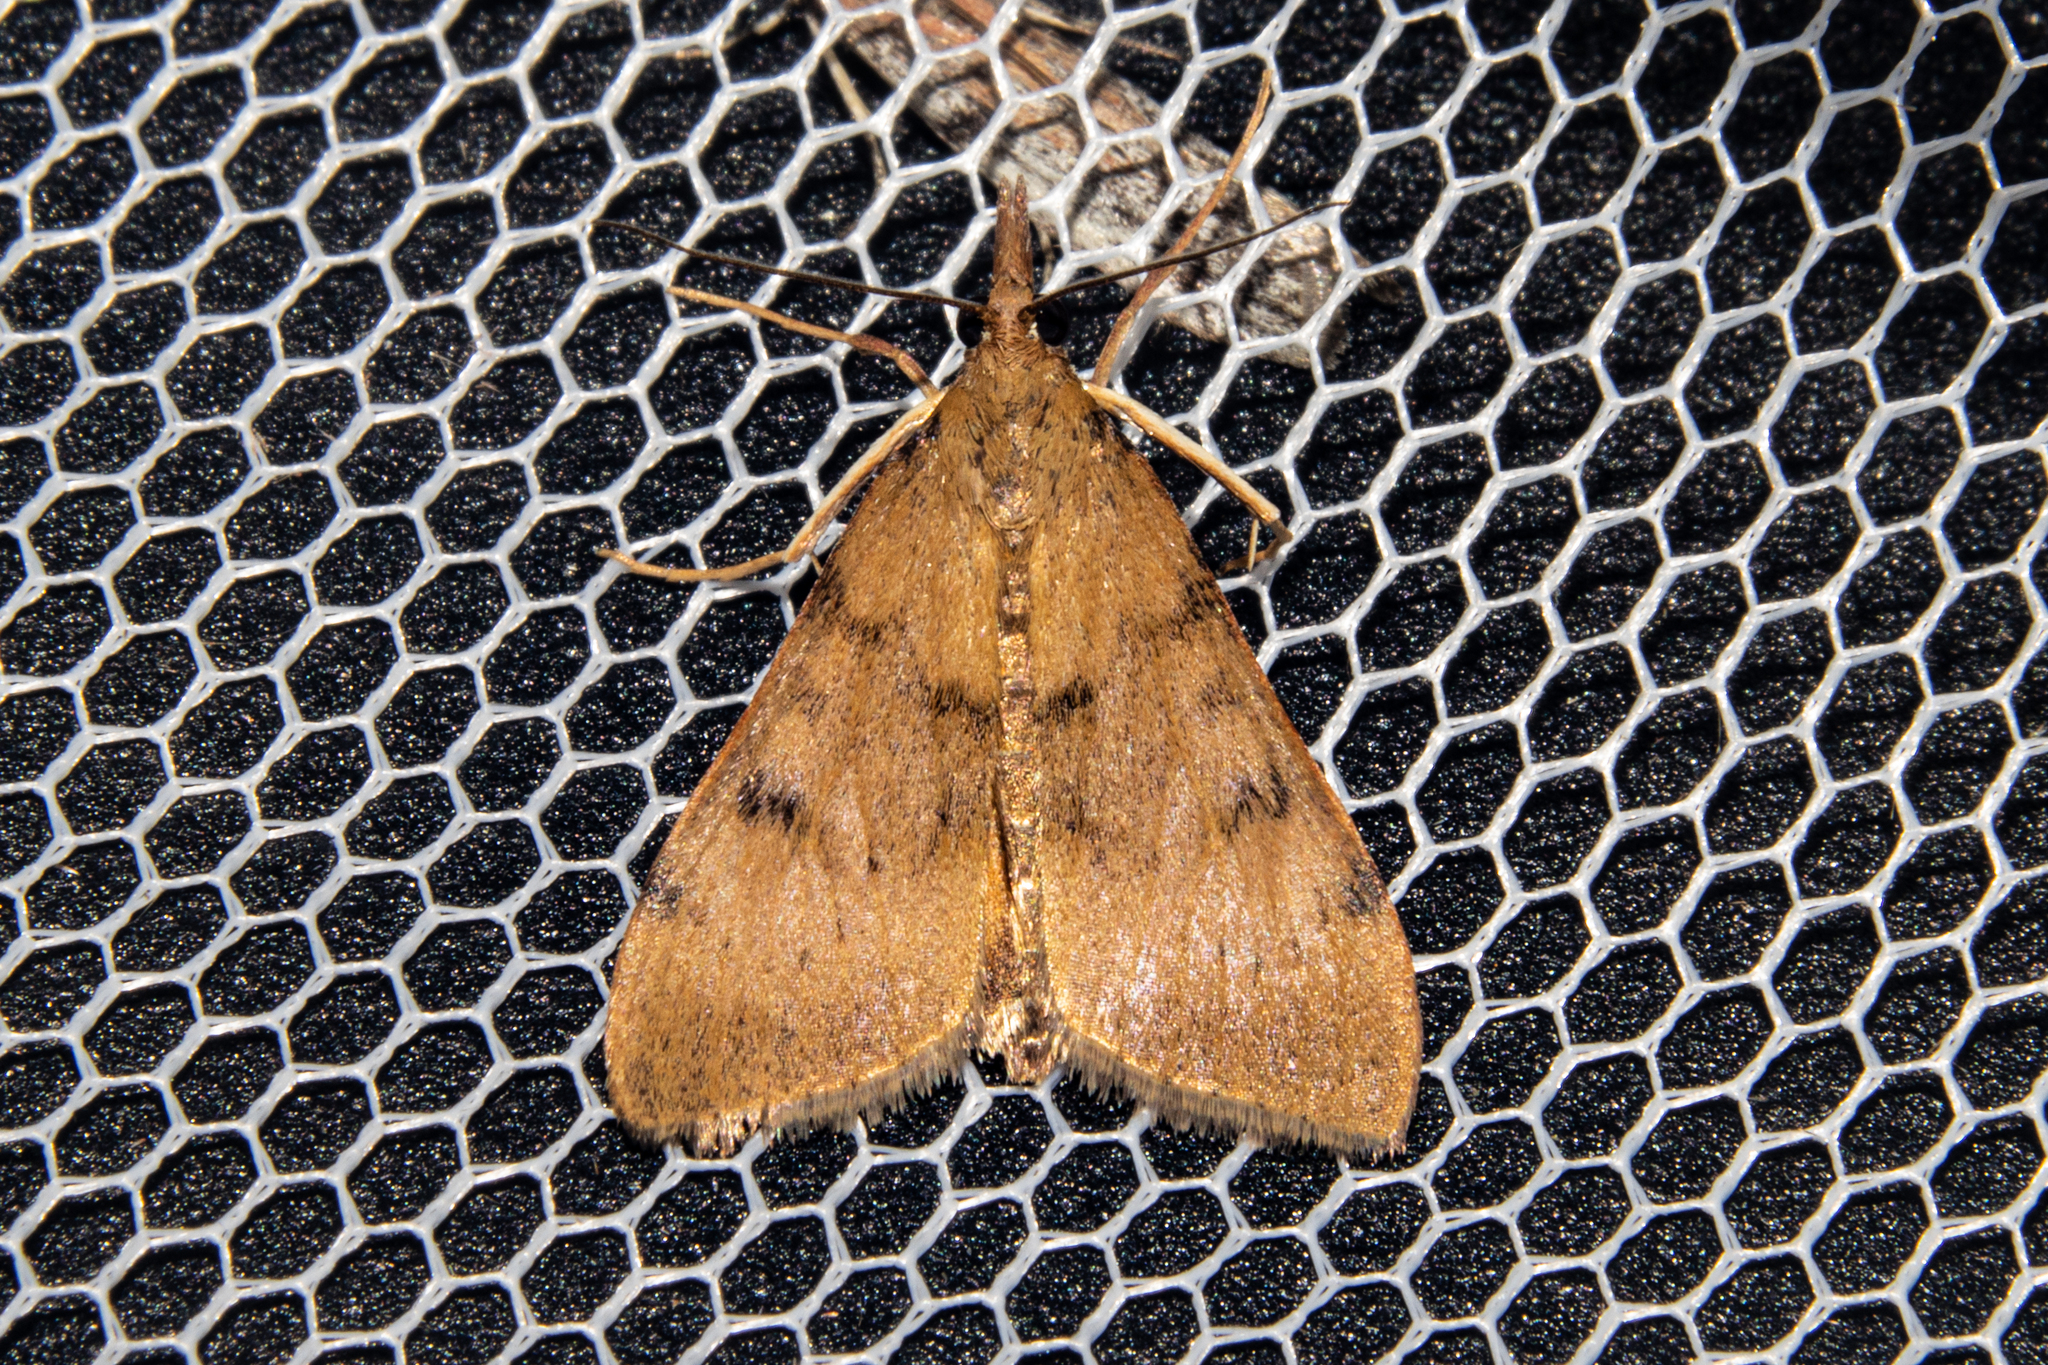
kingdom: Animalia
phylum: Arthropoda
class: Insecta
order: Lepidoptera
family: Crambidae
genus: Uresiphita
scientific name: Uresiphita
